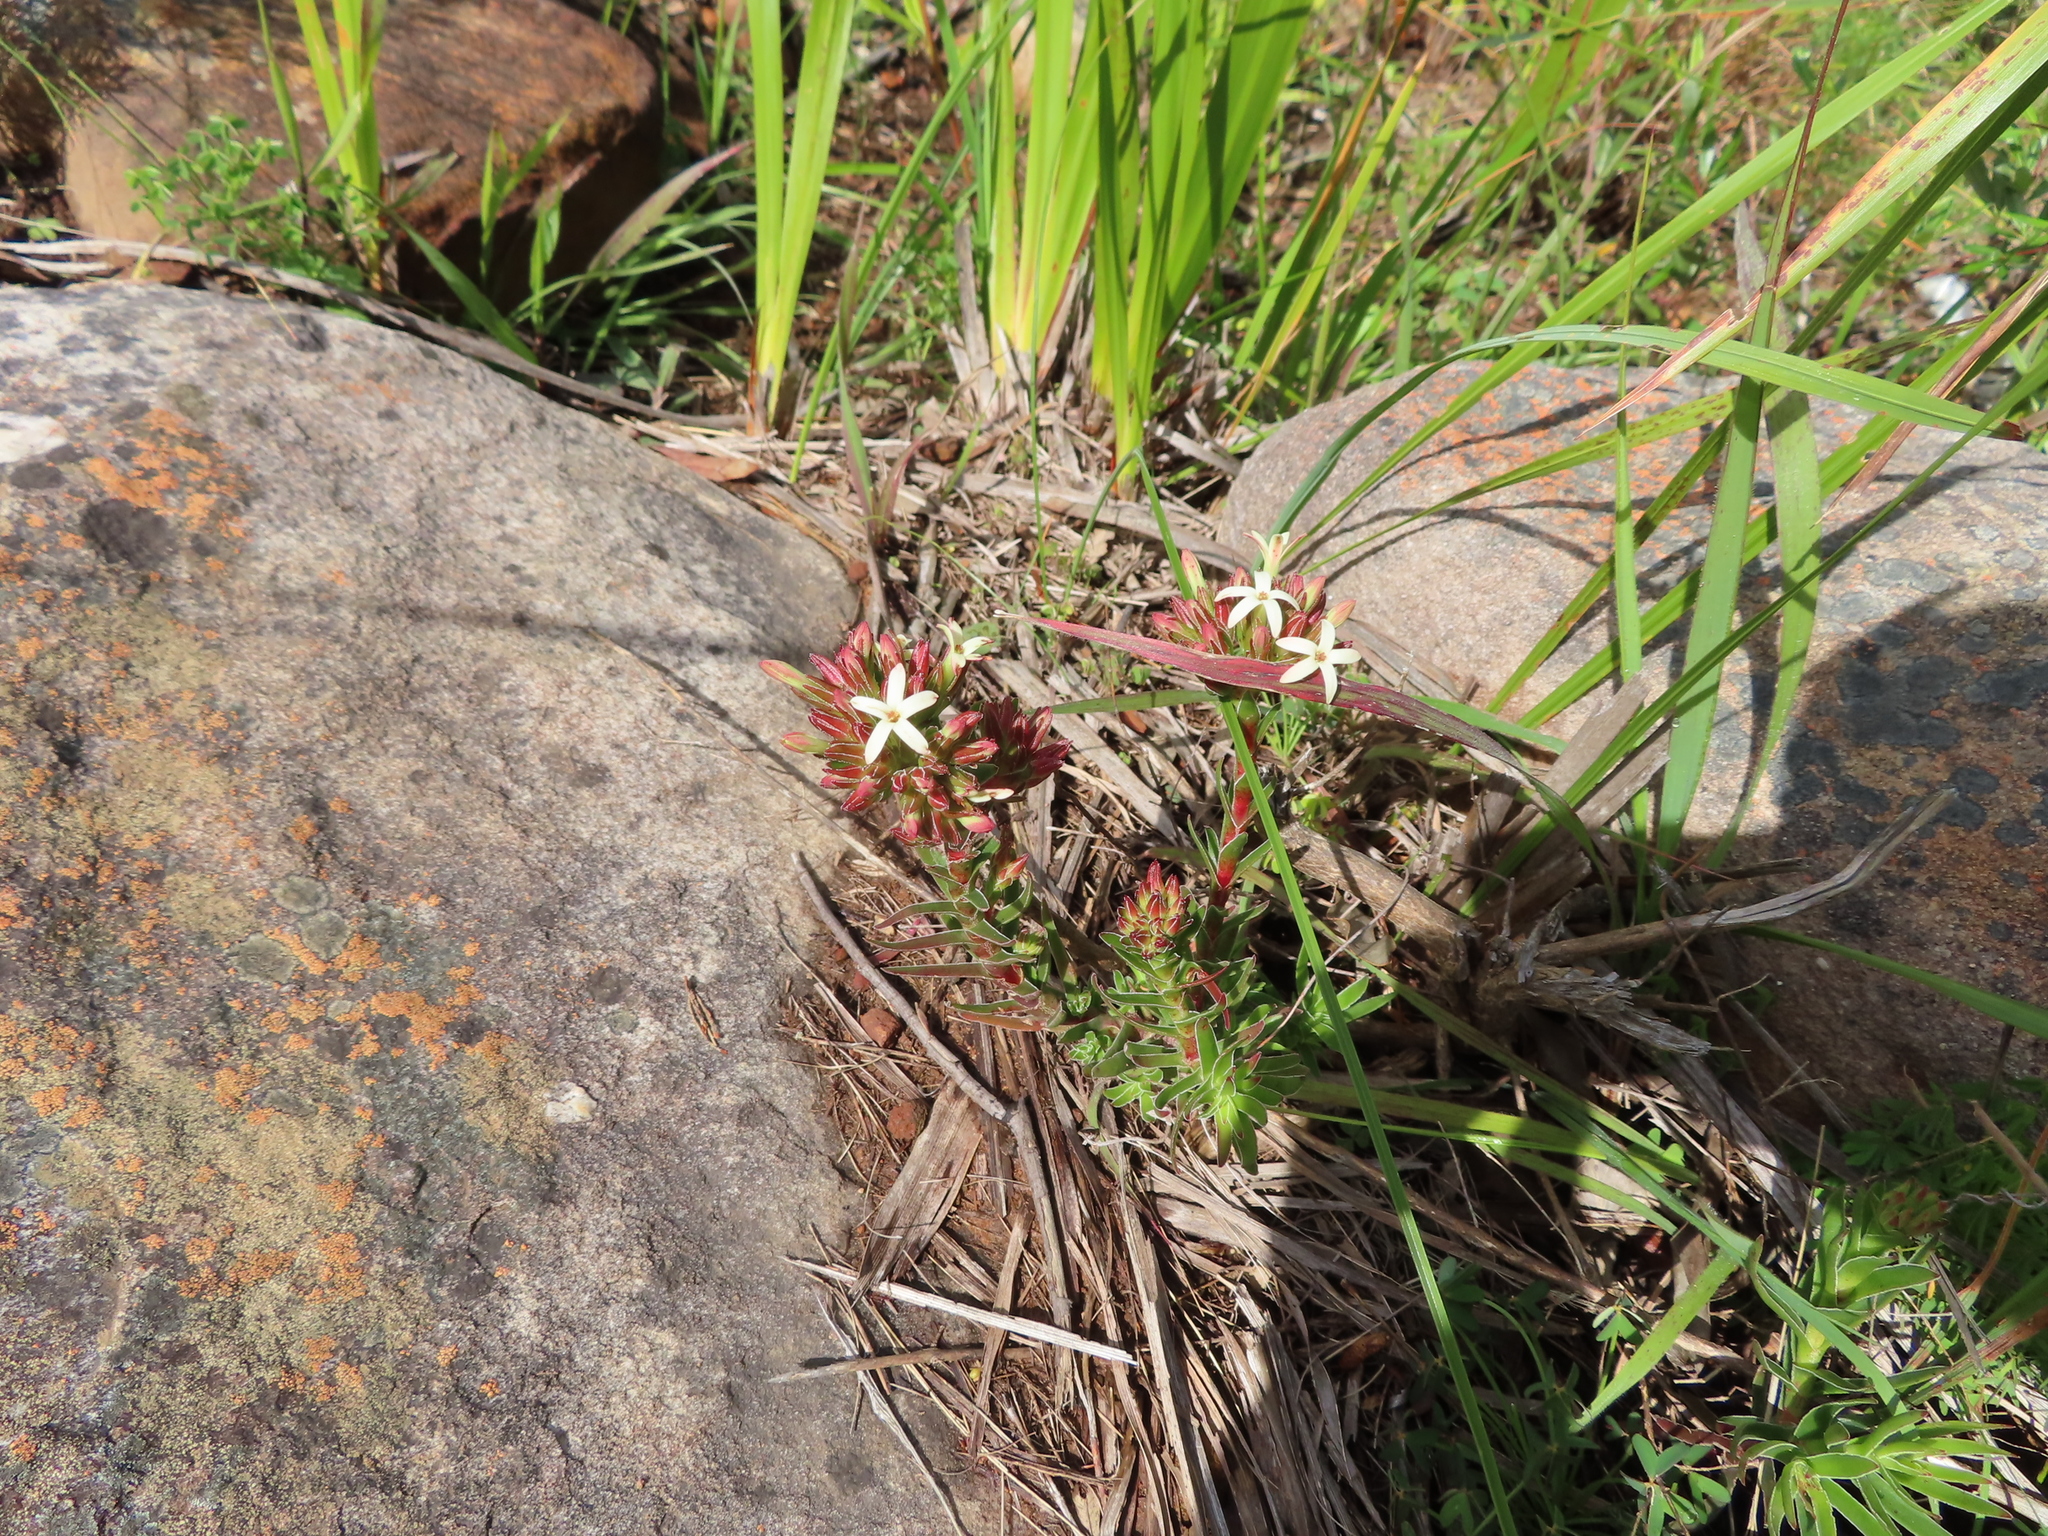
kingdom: Plantae
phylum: Tracheophyta
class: Magnoliopsida
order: Saxifragales
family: Crassulaceae
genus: Crassula
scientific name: Crassula fascicularis
